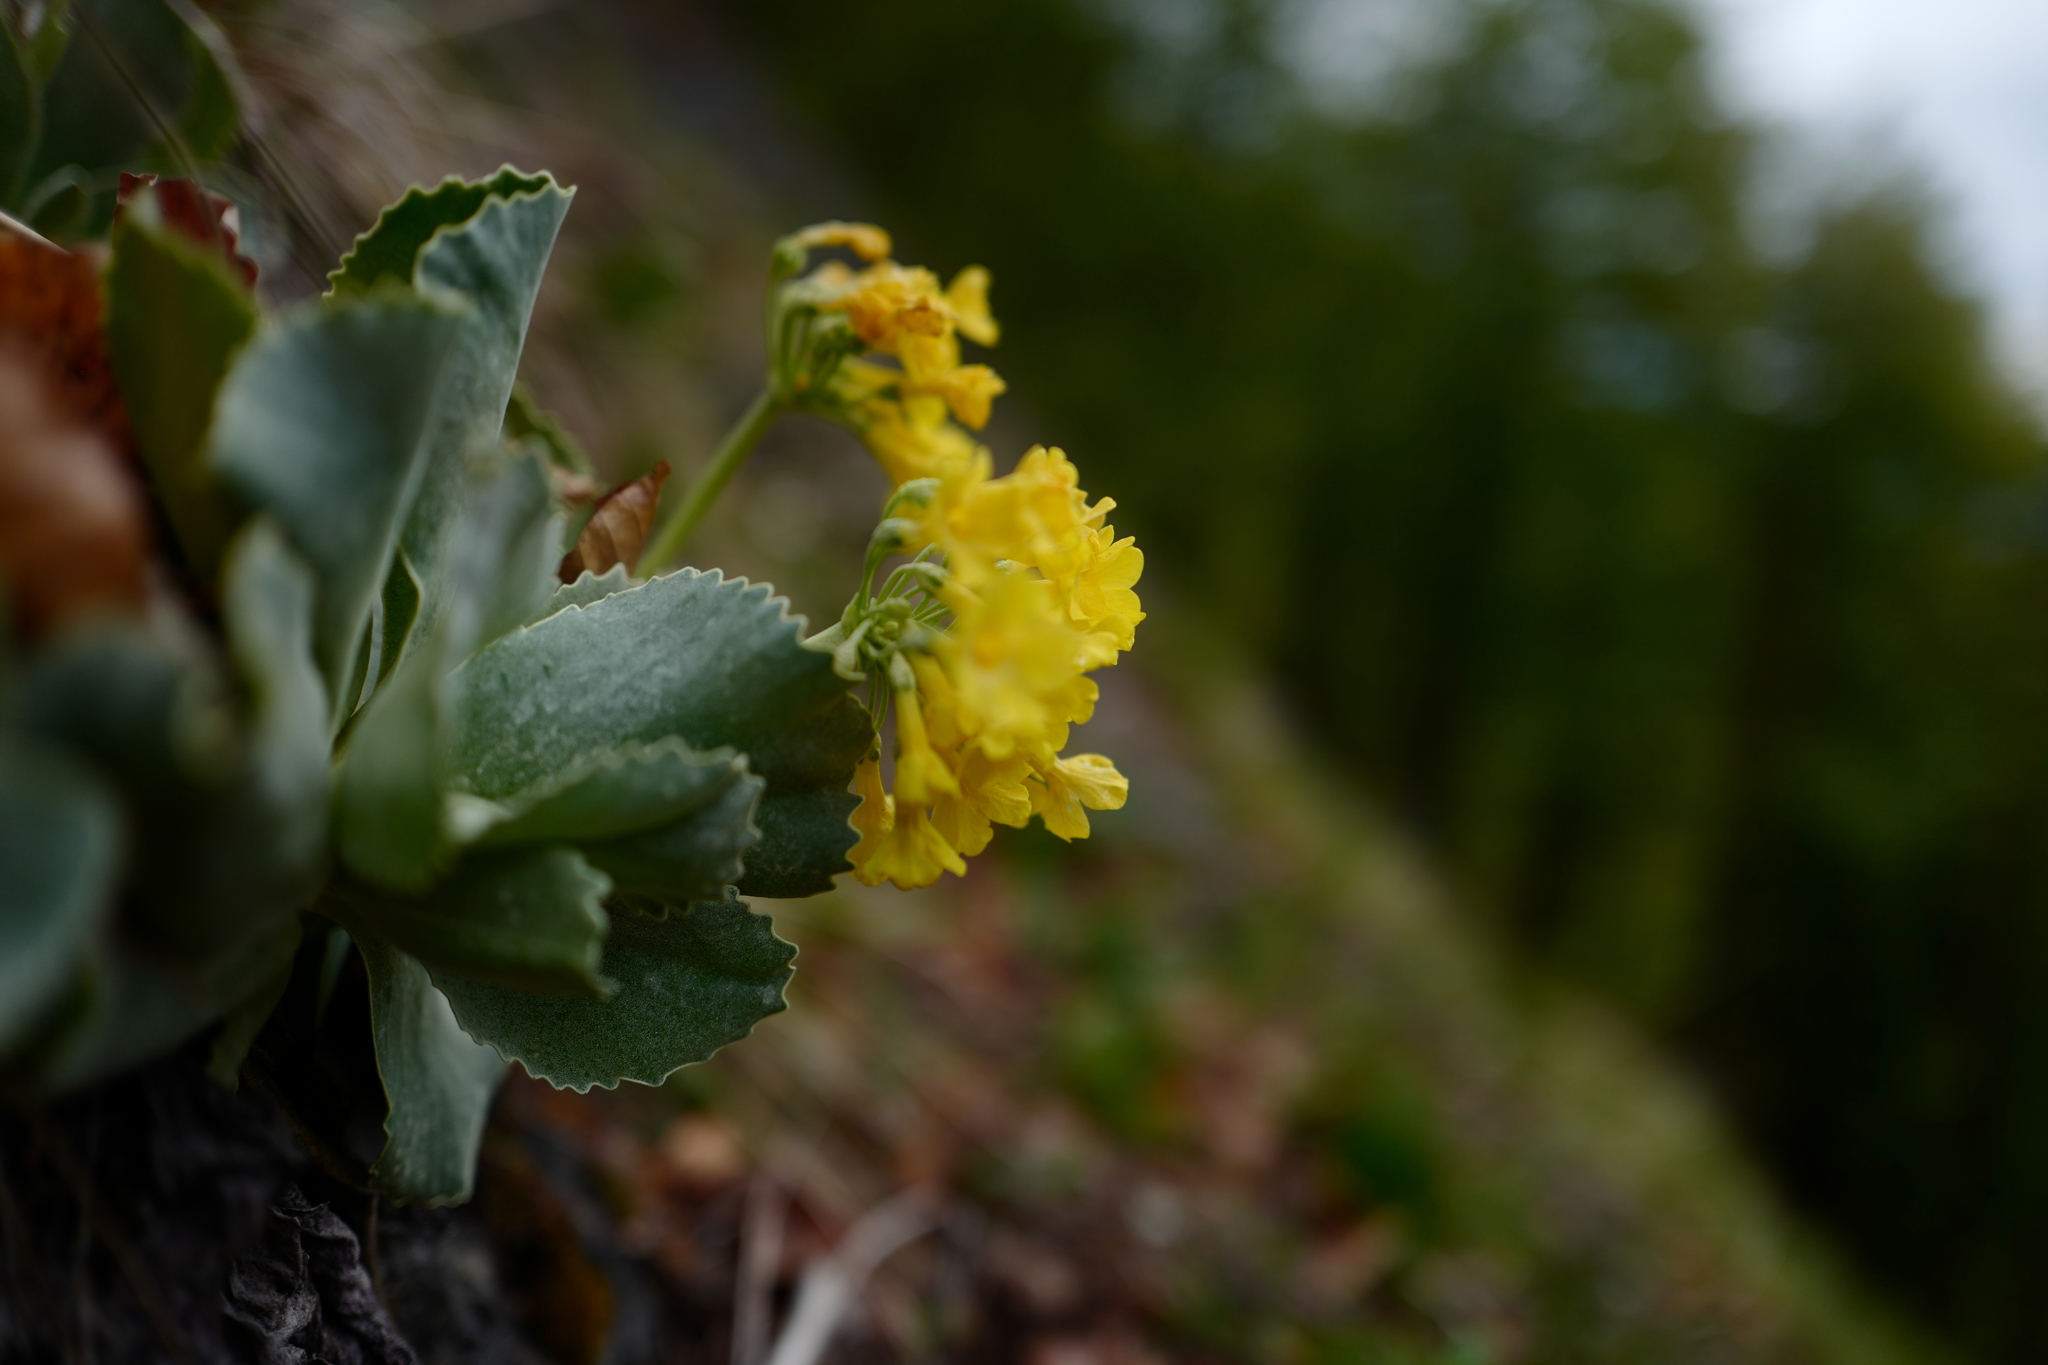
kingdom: Plantae
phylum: Tracheophyta
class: Magnoliopsida
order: Ericales
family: Primulaceae
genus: Primula
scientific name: Primula auricula
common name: Auricula
